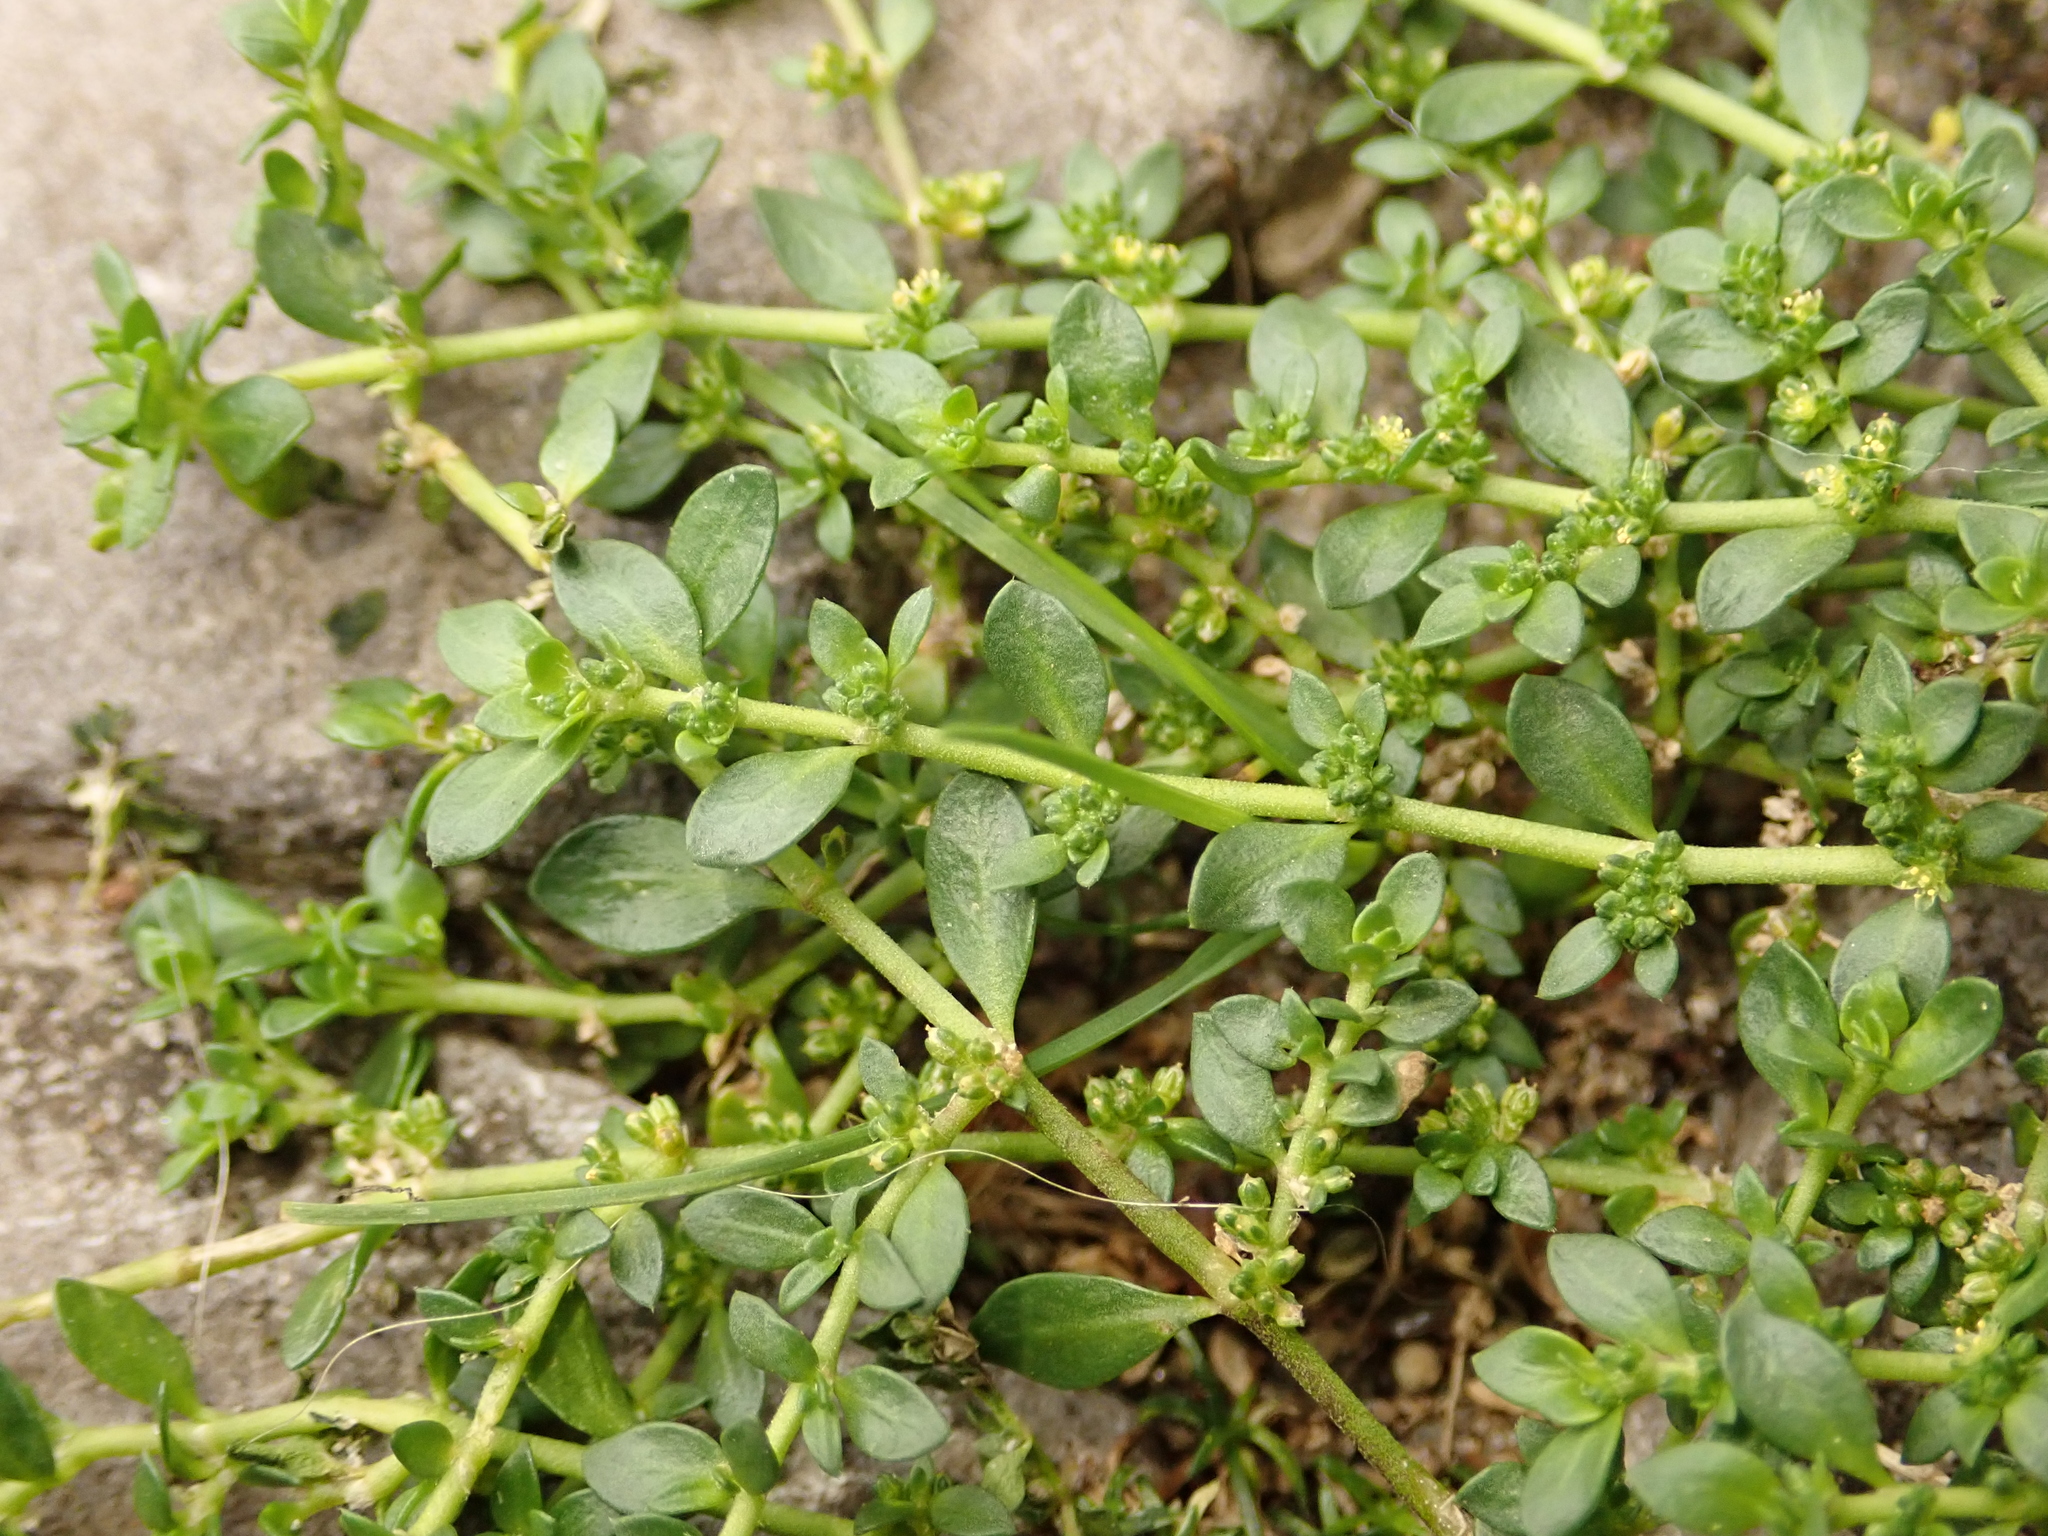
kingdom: Plantae
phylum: Tracheophyta
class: Magnoliopsida
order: Caryophyllales
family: Caryophyllaceae
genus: Herniaria
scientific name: Herniaria glabra
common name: Smooth rupturewort
